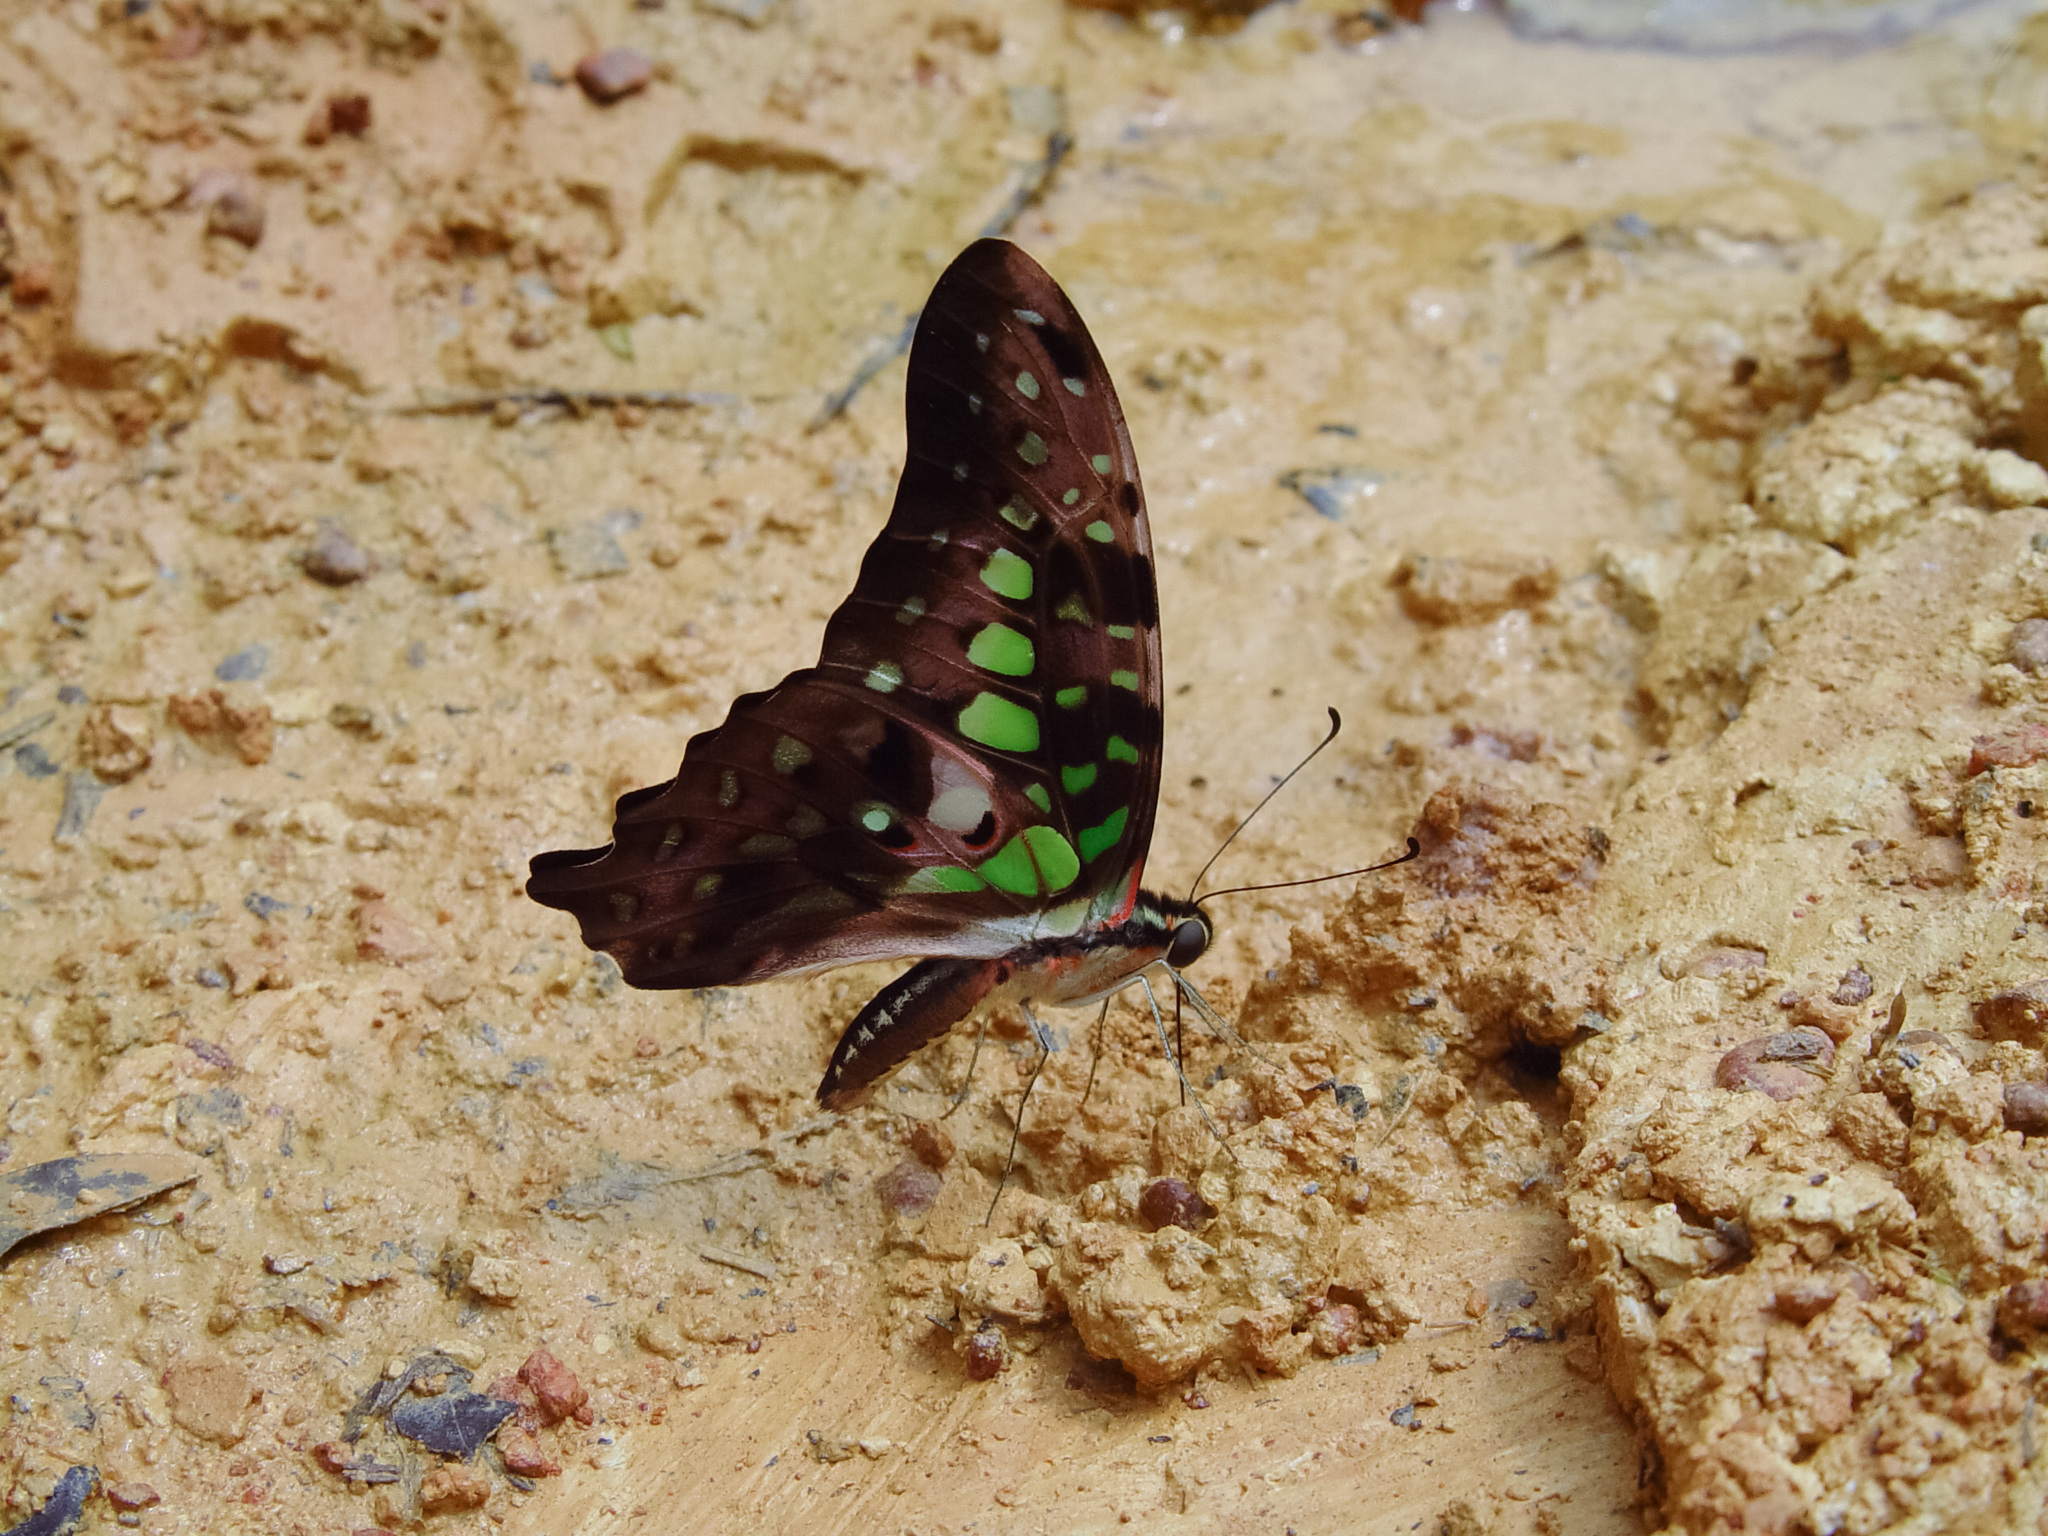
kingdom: Animalia
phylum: Arthropoda
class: Insecta
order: Lepidoptera
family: Papilionidae
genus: Graphium
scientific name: Graphium agamemnon
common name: Tailed jay
